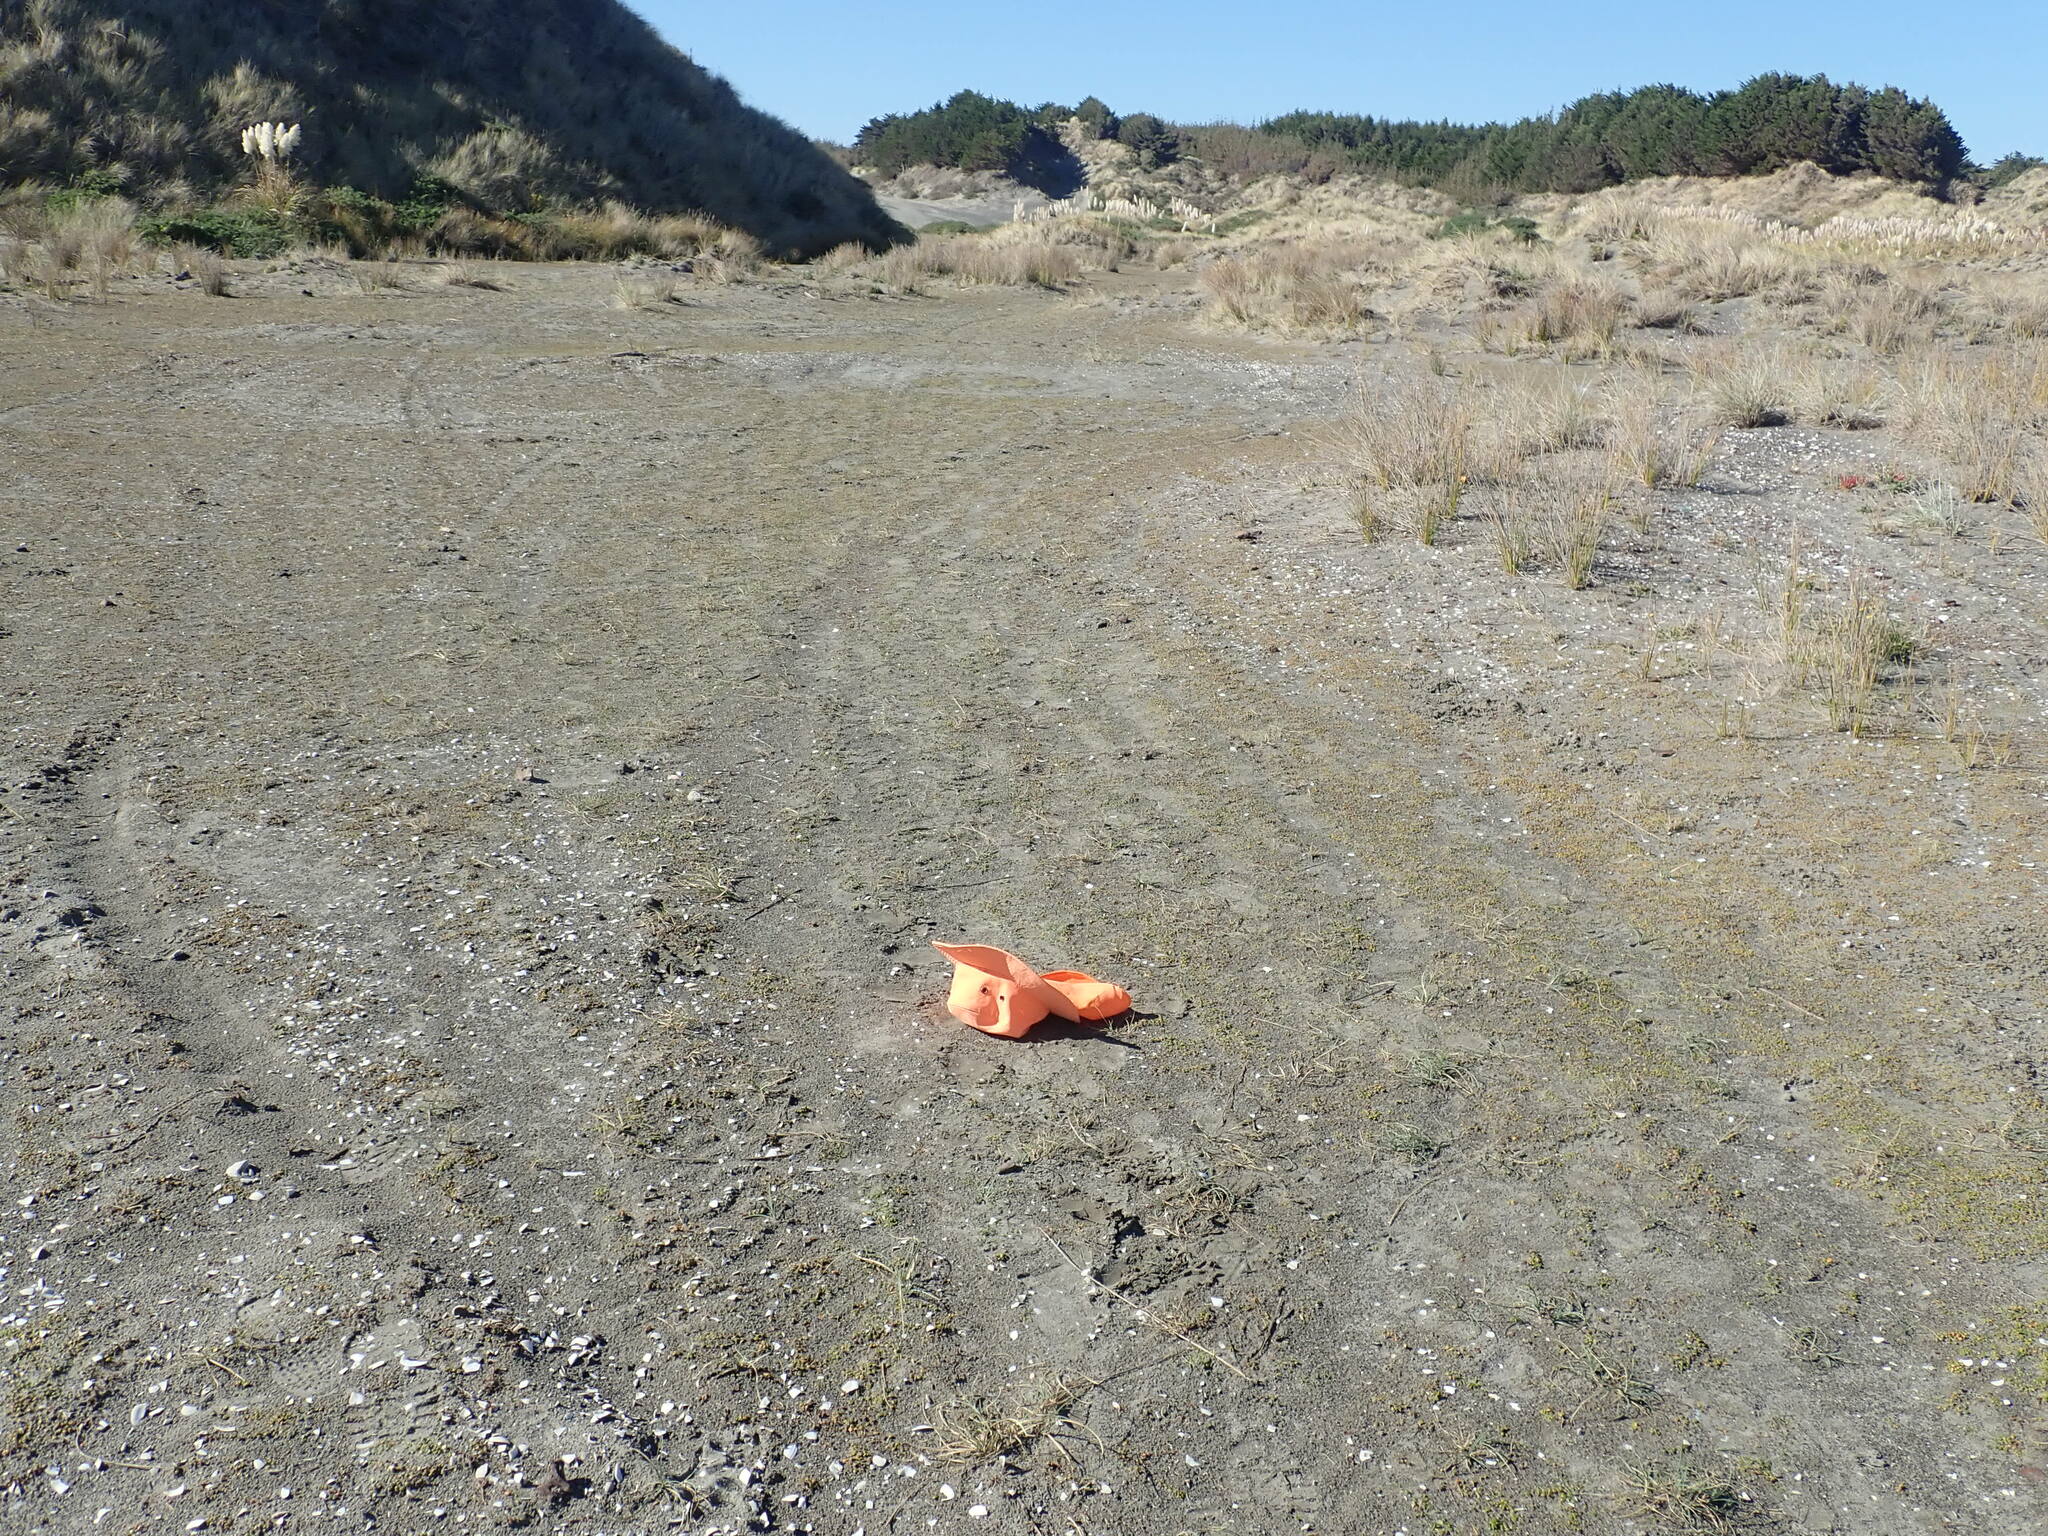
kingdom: Plantae
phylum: Tracheophyta
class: Magnoliopsida
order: Apiales
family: Apiaceae
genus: Lilaeopsis
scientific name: Lilaeopsis novae-zelandiae
